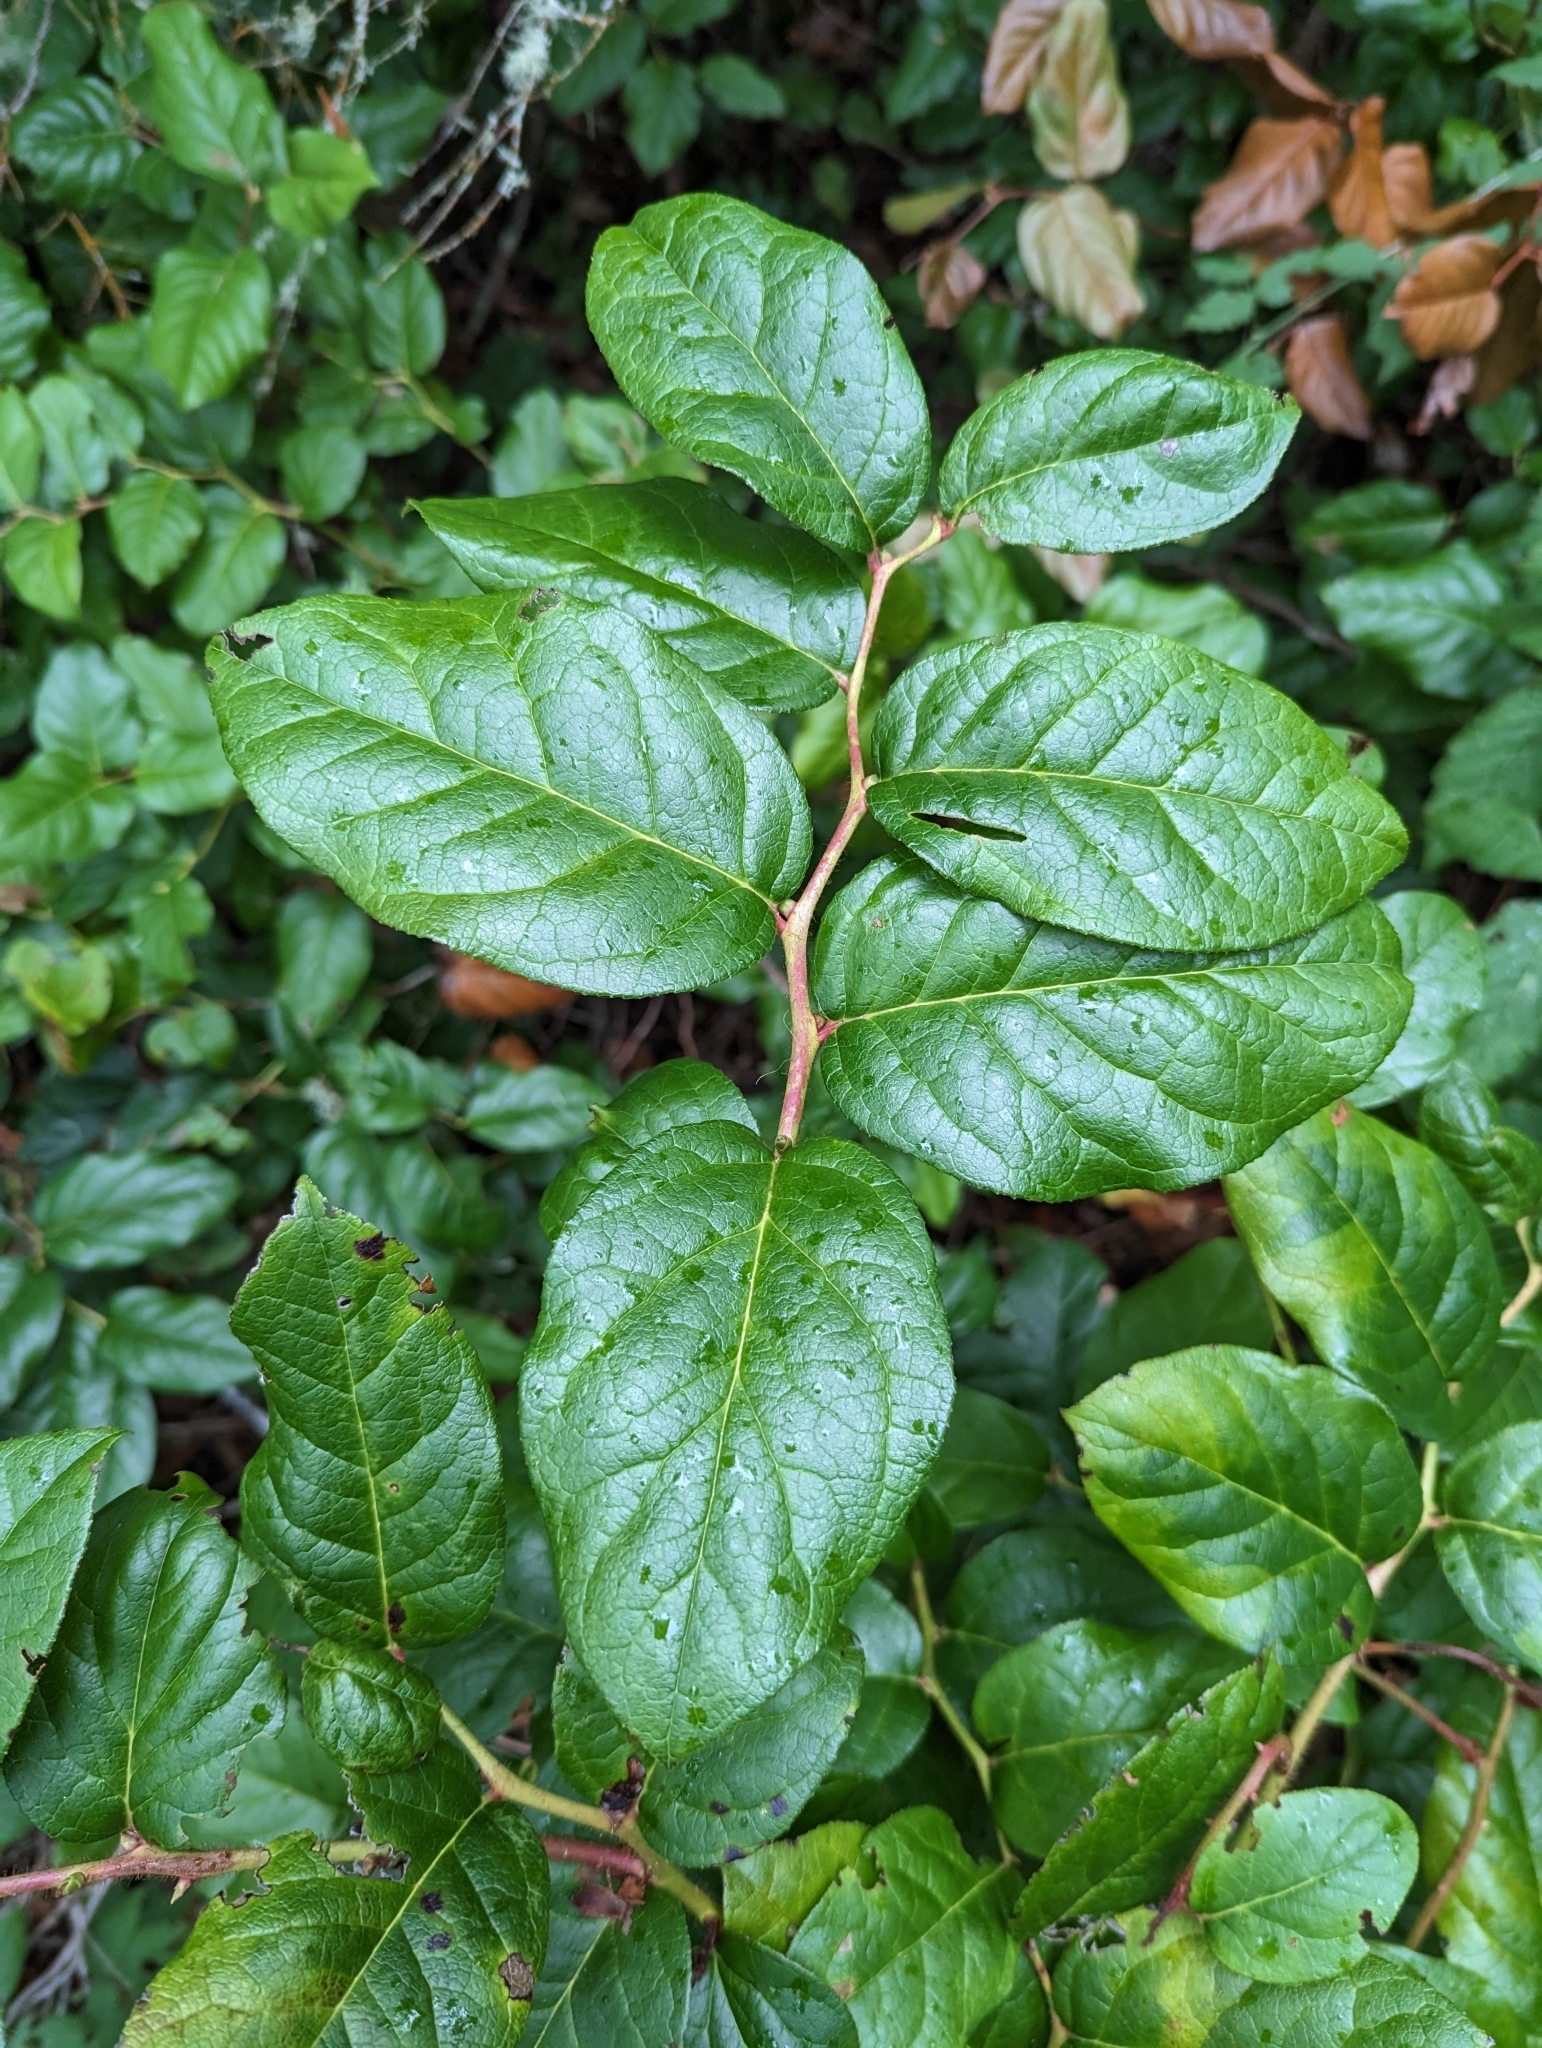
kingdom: Plantae
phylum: Tracheophyta
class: Magnoliopsida
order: Ericales
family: Ericaceae
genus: Gaultheria
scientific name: Gaultheria shallon
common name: Shallon
